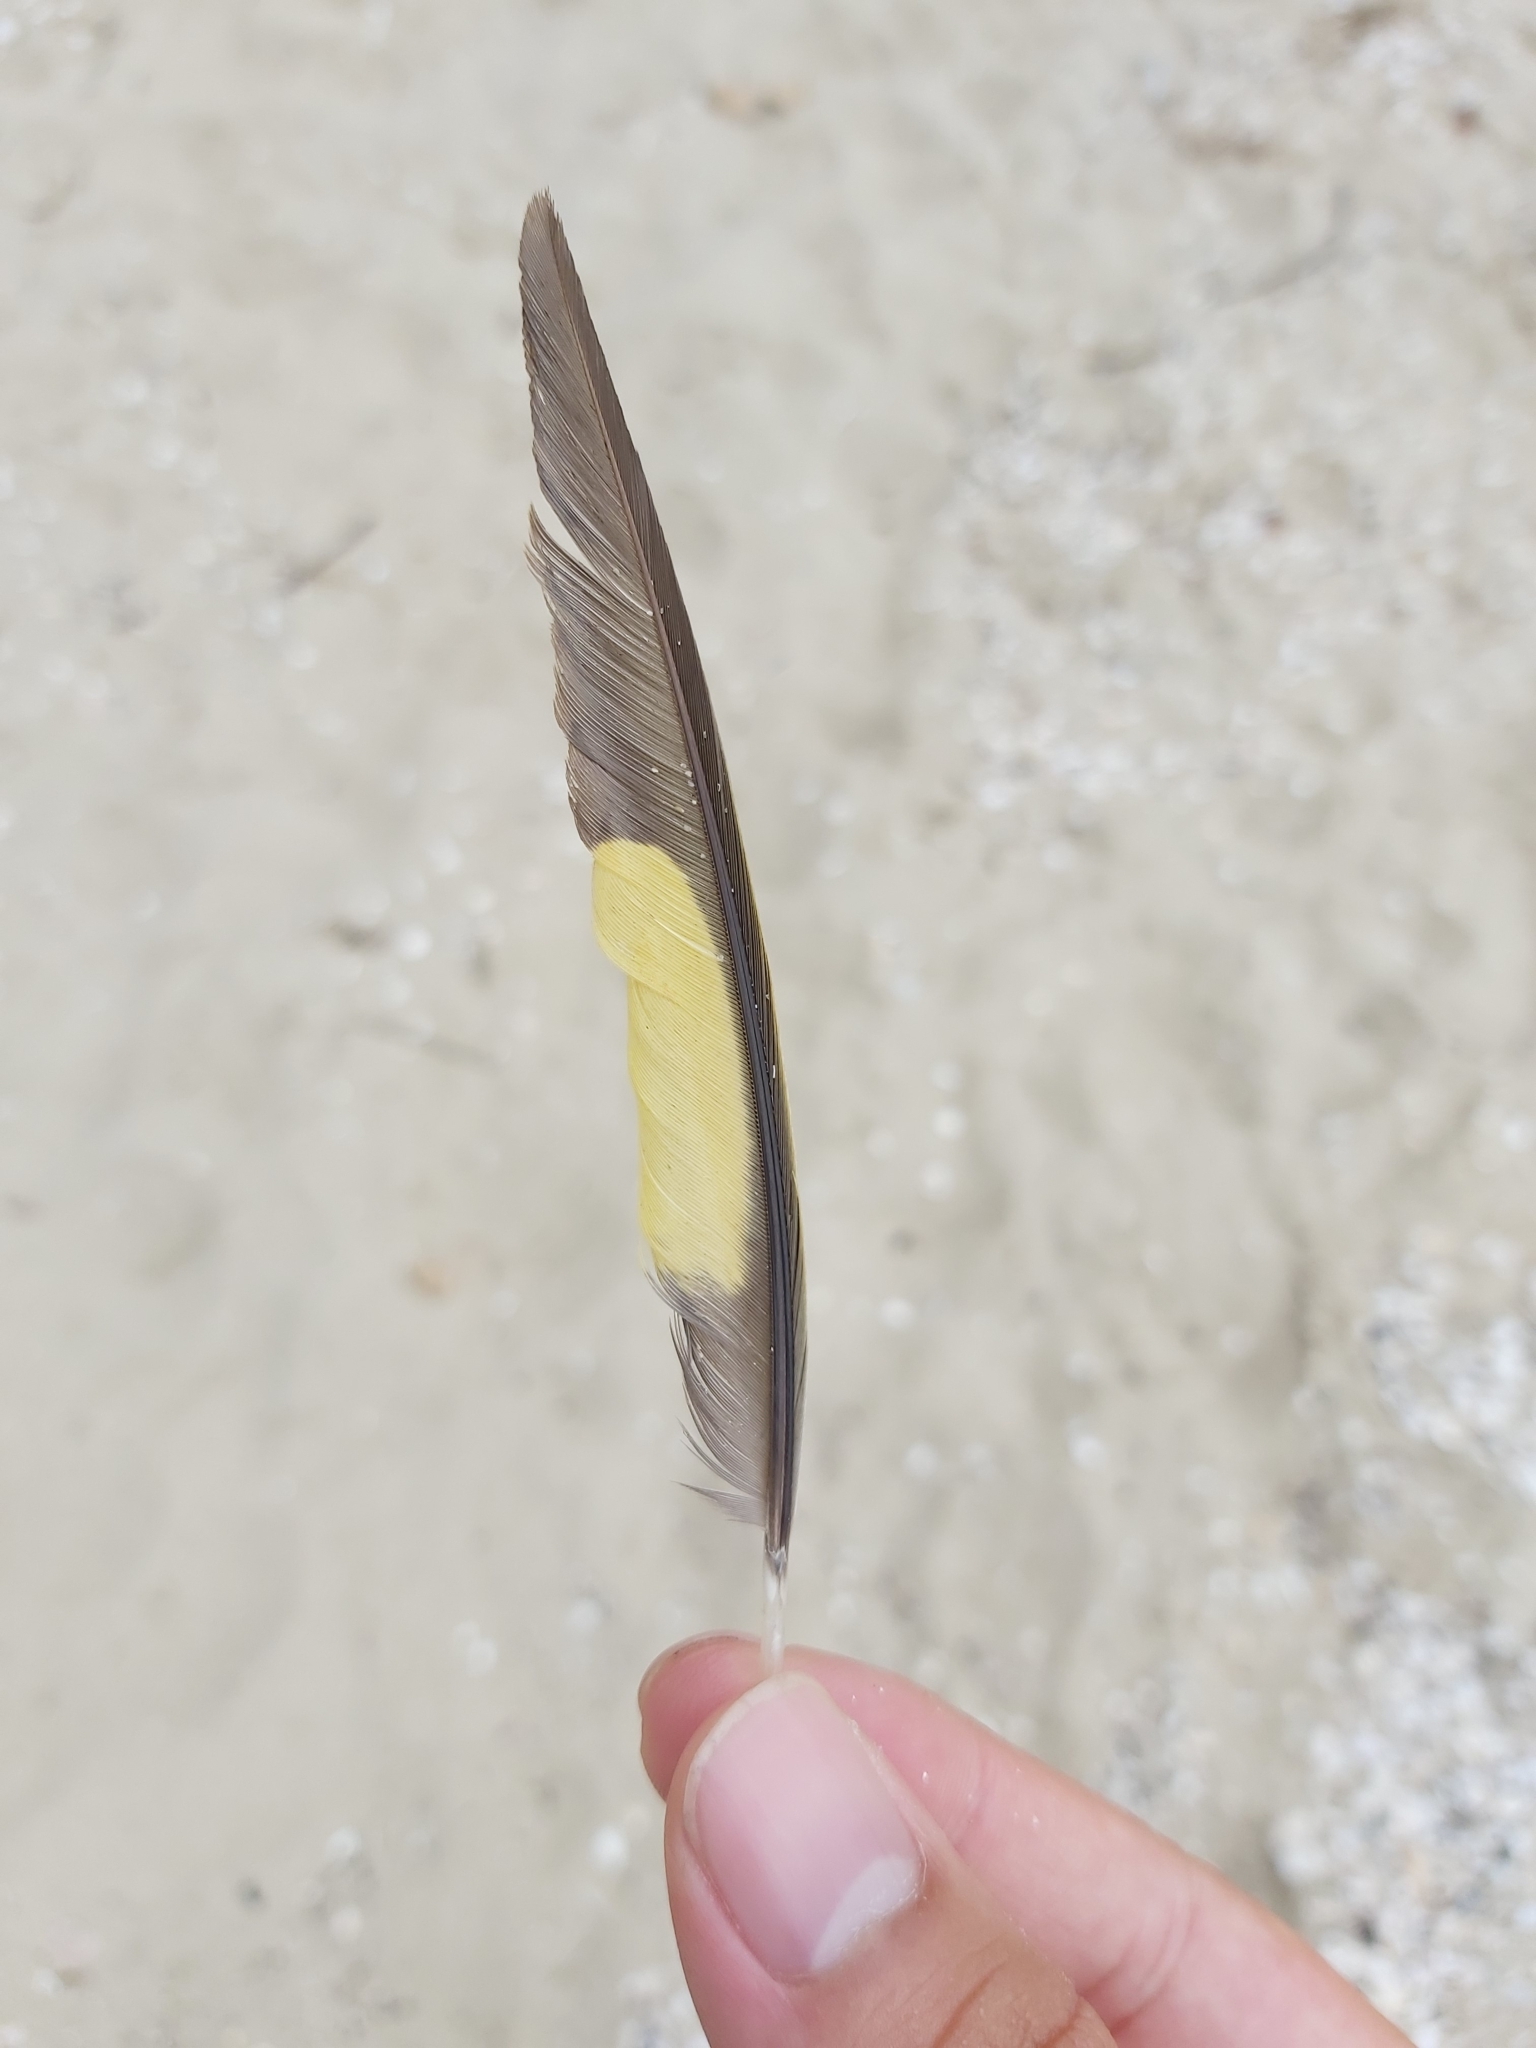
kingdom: Animalia
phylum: Chordata
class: Aves
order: Psittaciformes
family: Psittacidae
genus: Trichoglossus
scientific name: Trichoglossus haematodus
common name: Coconut lorikeet
